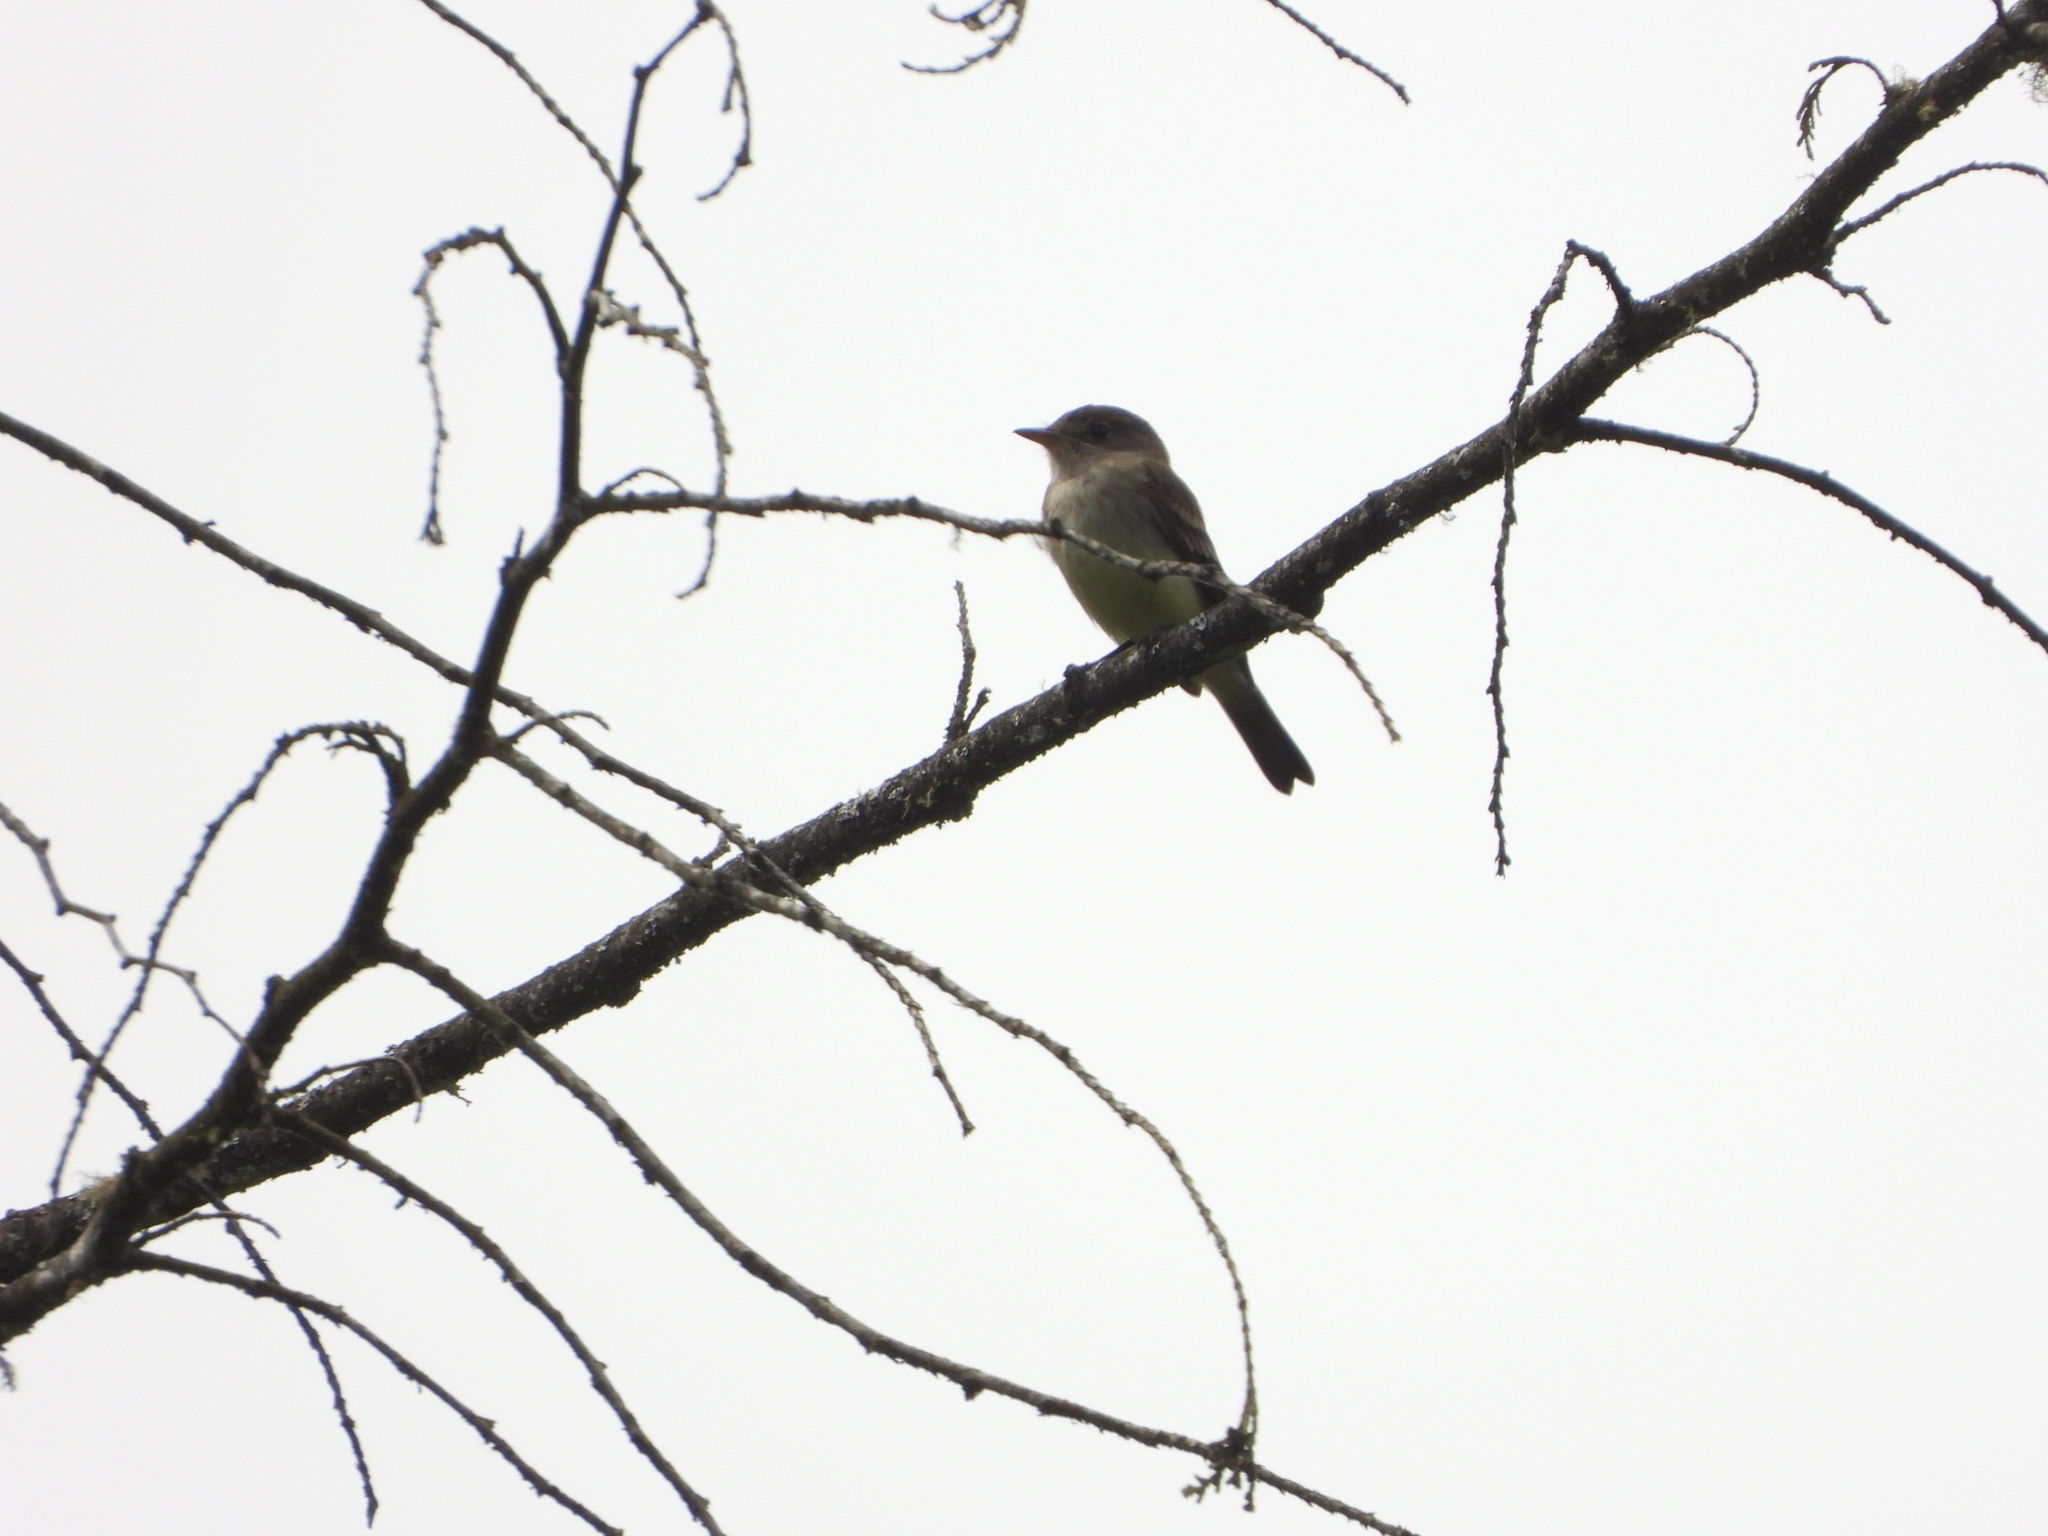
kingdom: Animalia
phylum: Chordata
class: Aves
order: Passeriformes
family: Tyrannidae
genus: Empidonax
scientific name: Empidonax traillii
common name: Willow flycatcher
